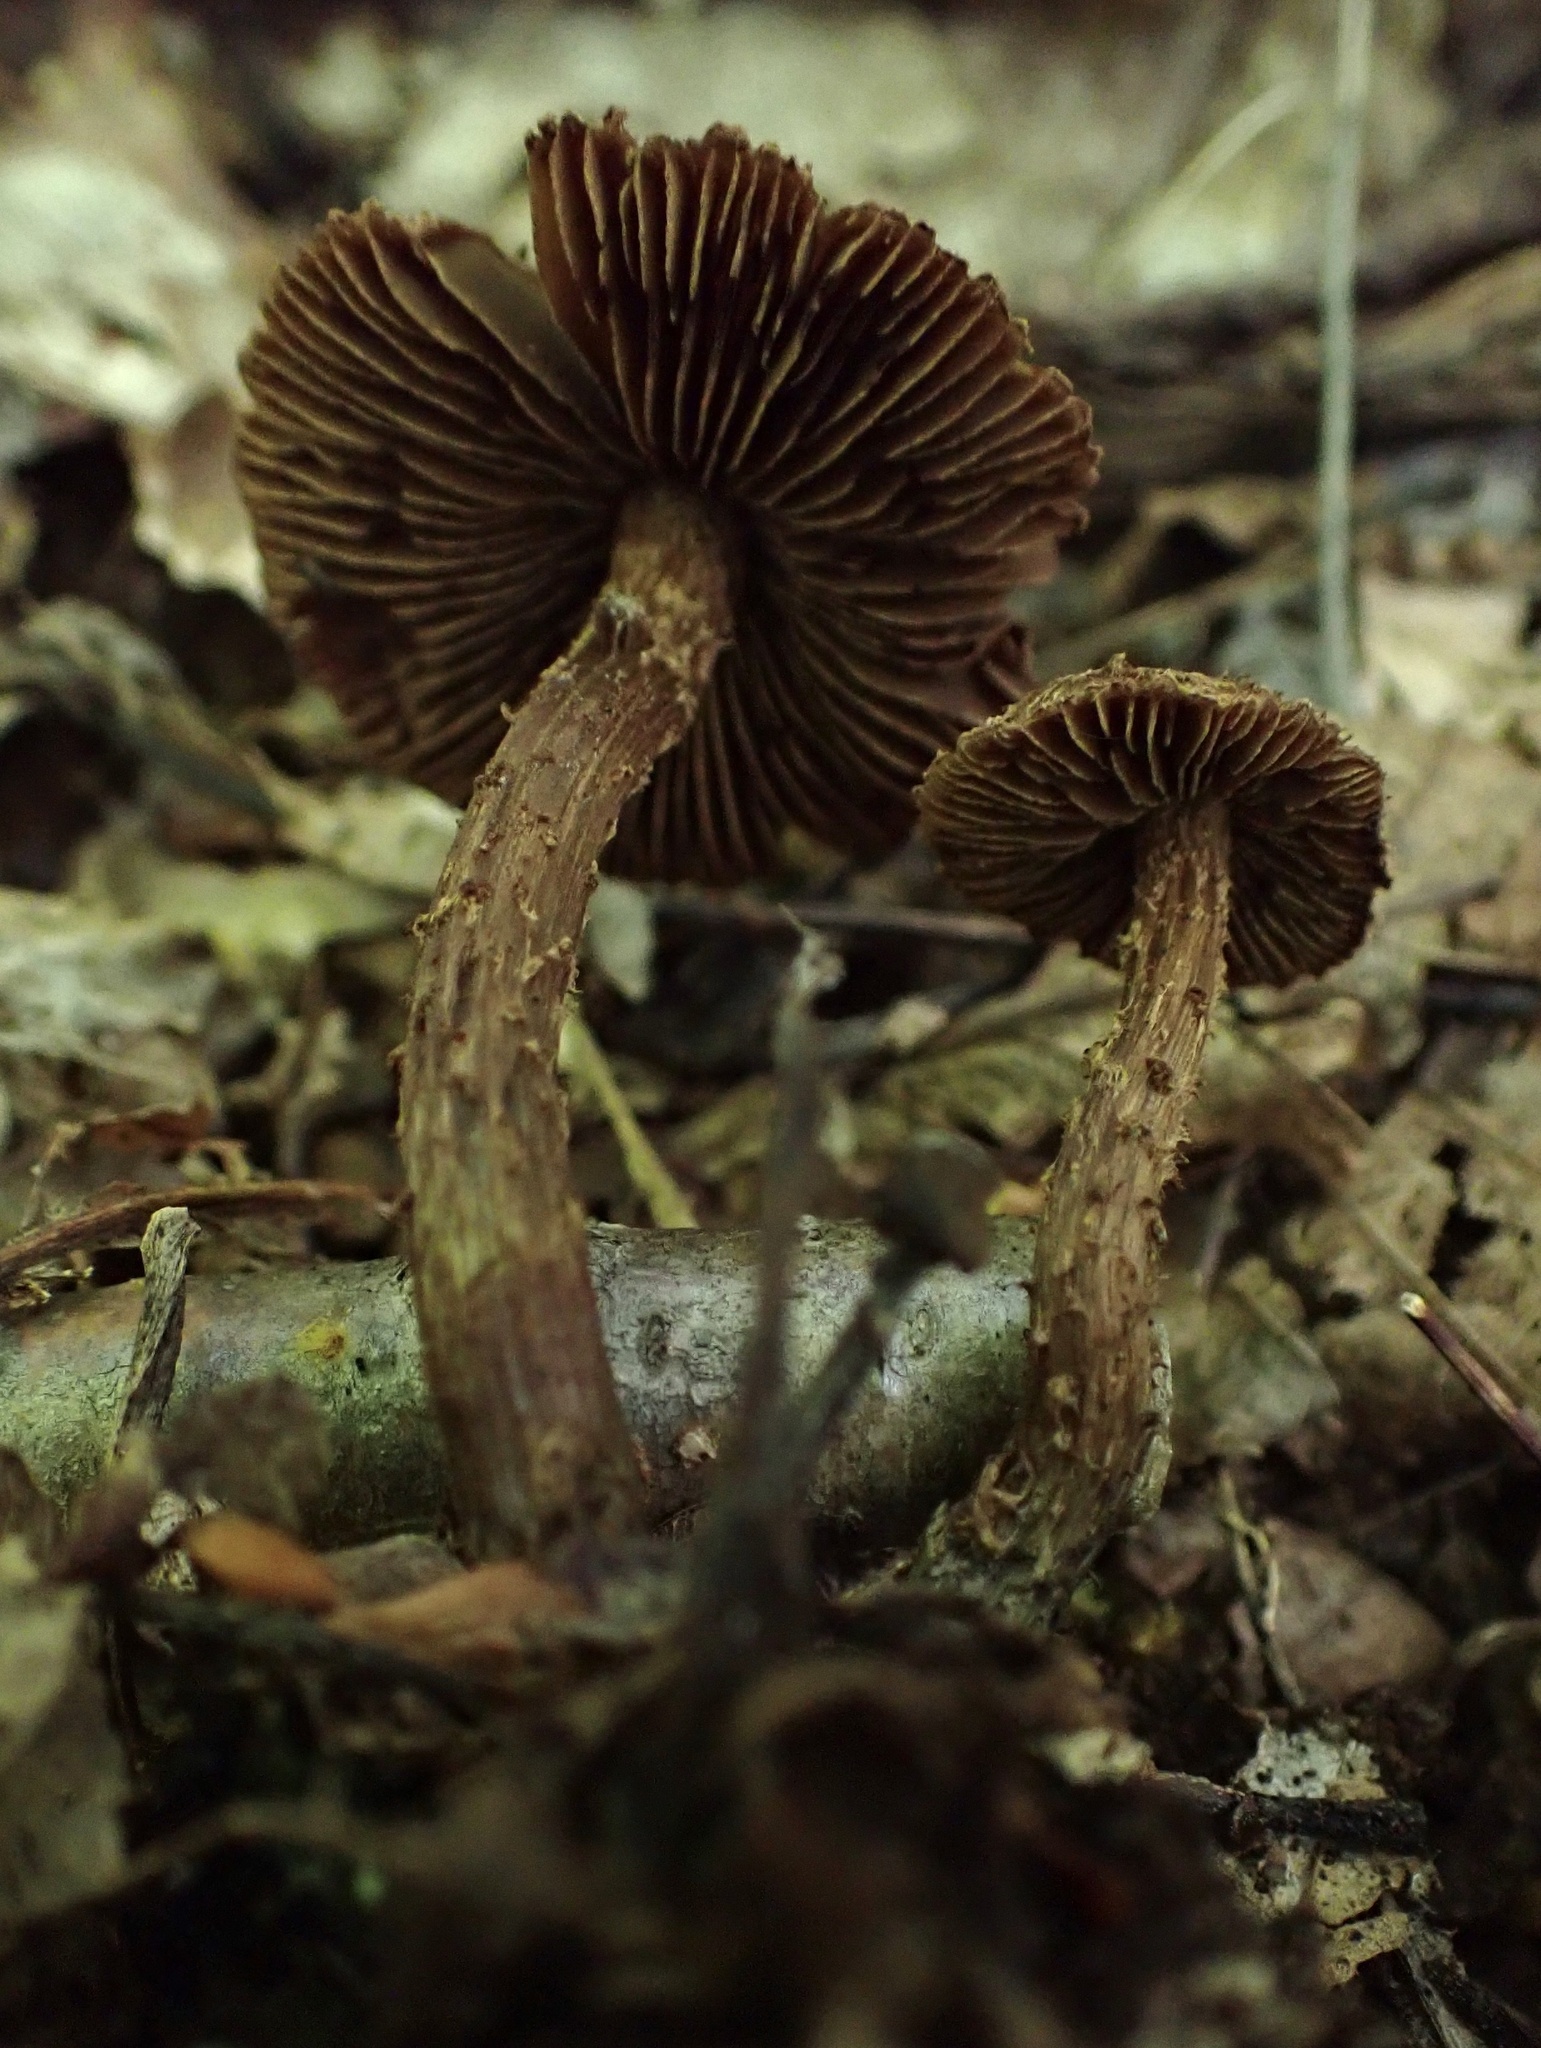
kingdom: Fungi
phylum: Basidiomycota
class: Agaricomycetes
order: Agaricales
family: Inocybaceae
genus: Inosperma
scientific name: Inosperma mutatum
